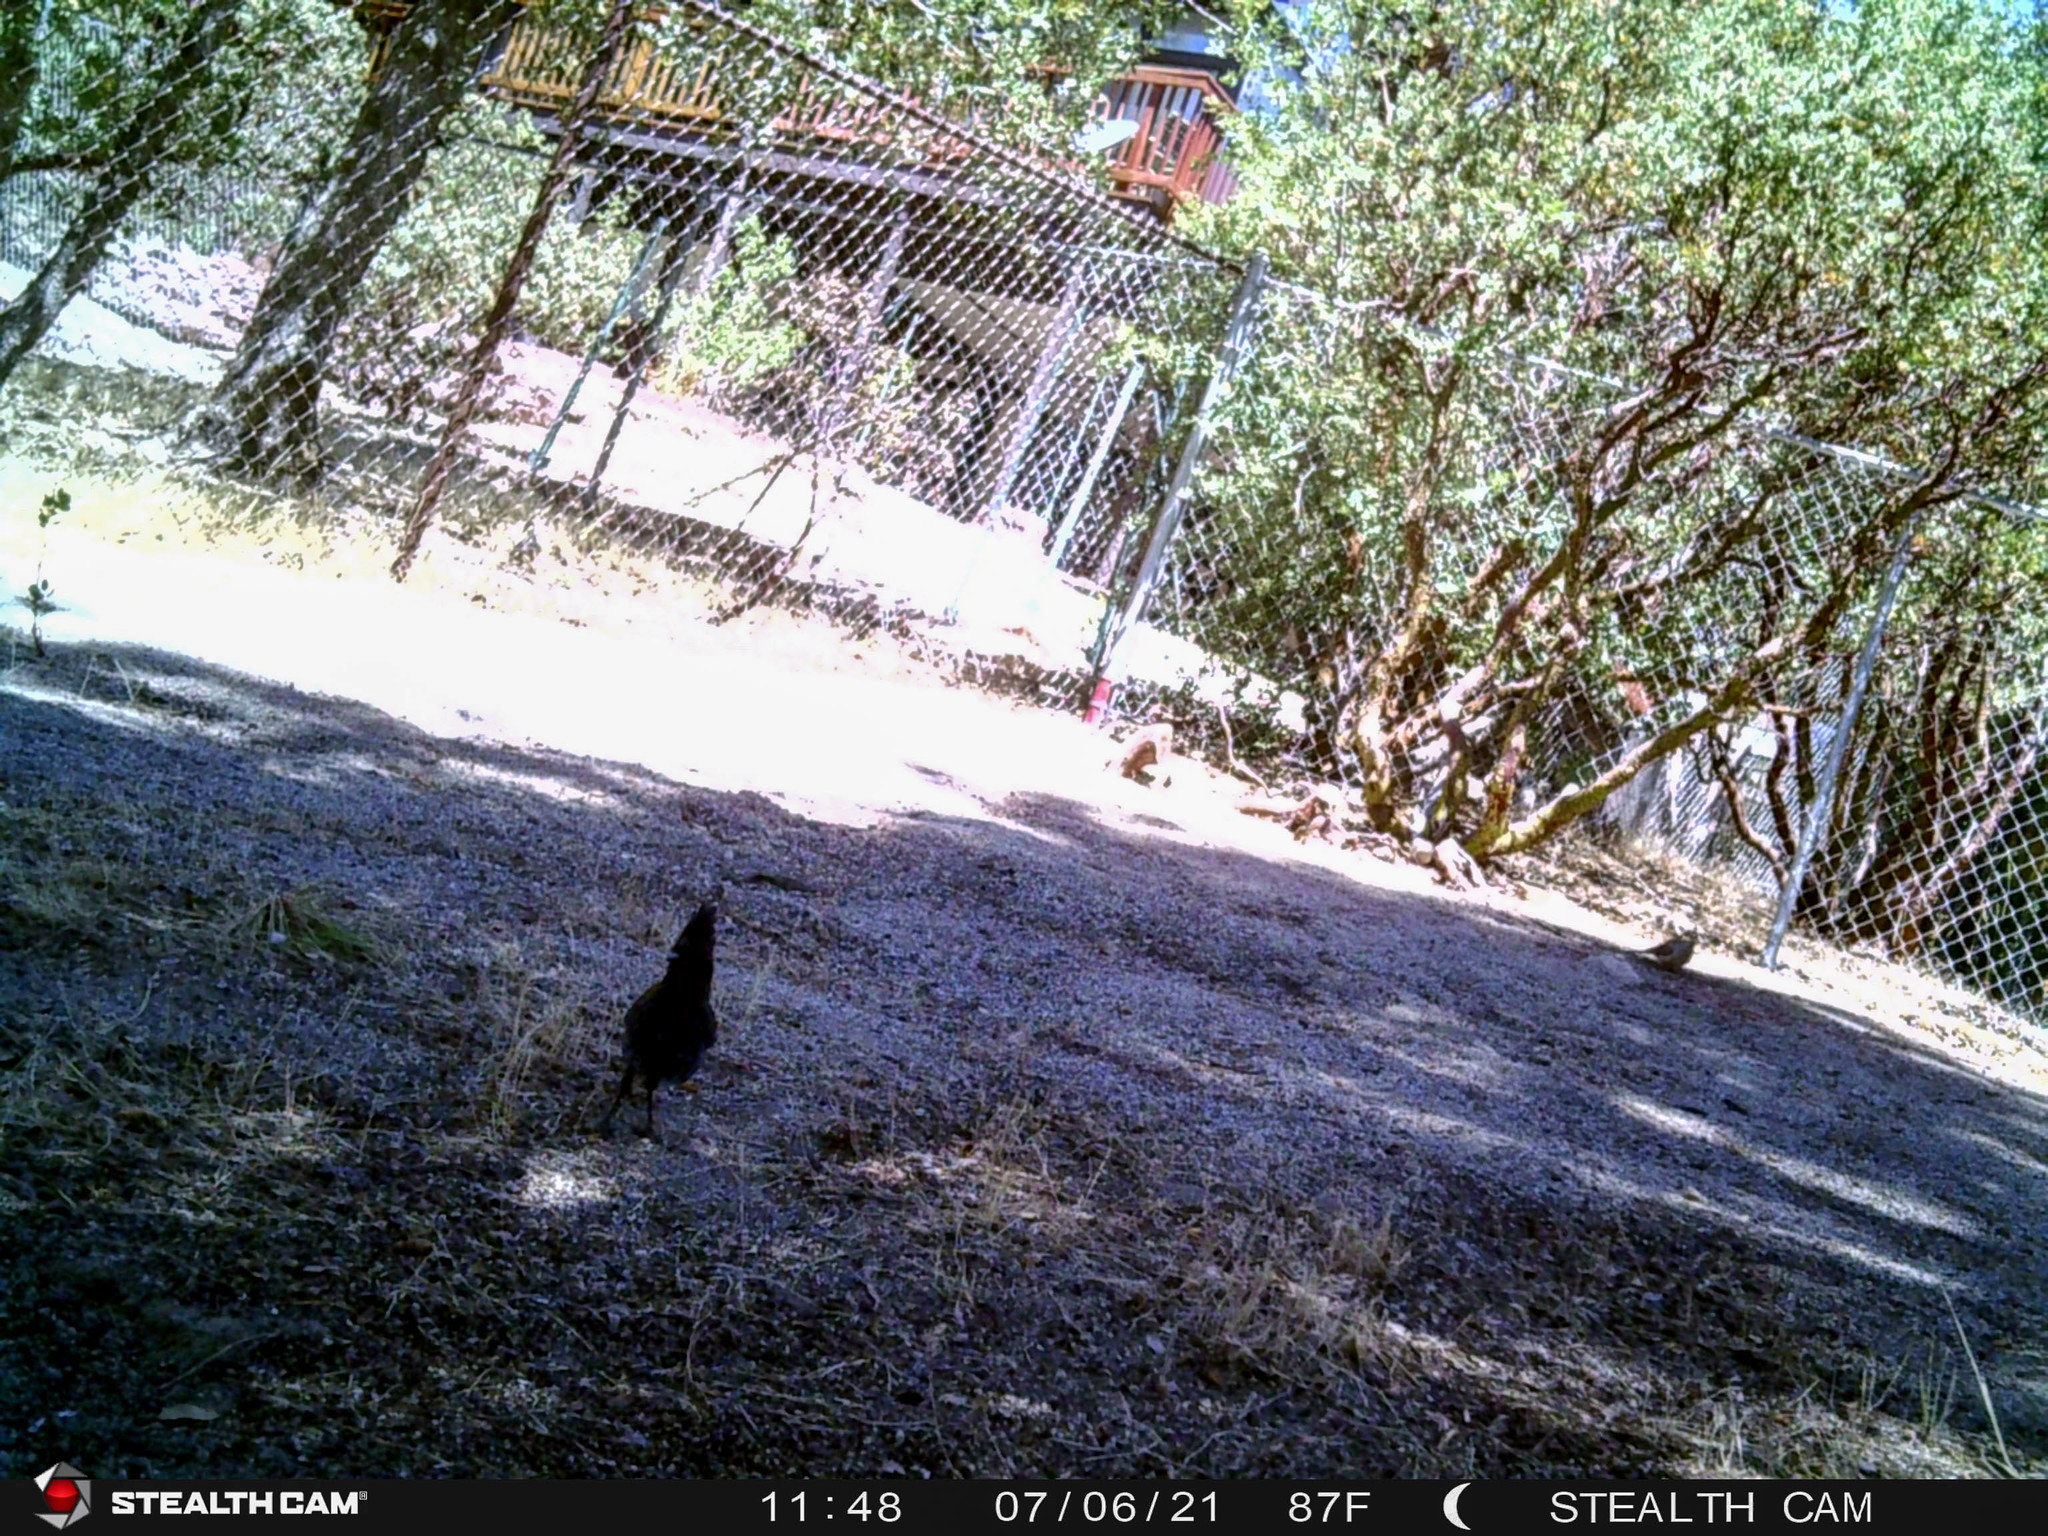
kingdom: Animalia
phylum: Chordata
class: Aves
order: Passeriformes
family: Corvidae
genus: Cyanocitta
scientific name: Cyanocitta stelleri
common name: Steller's jay
